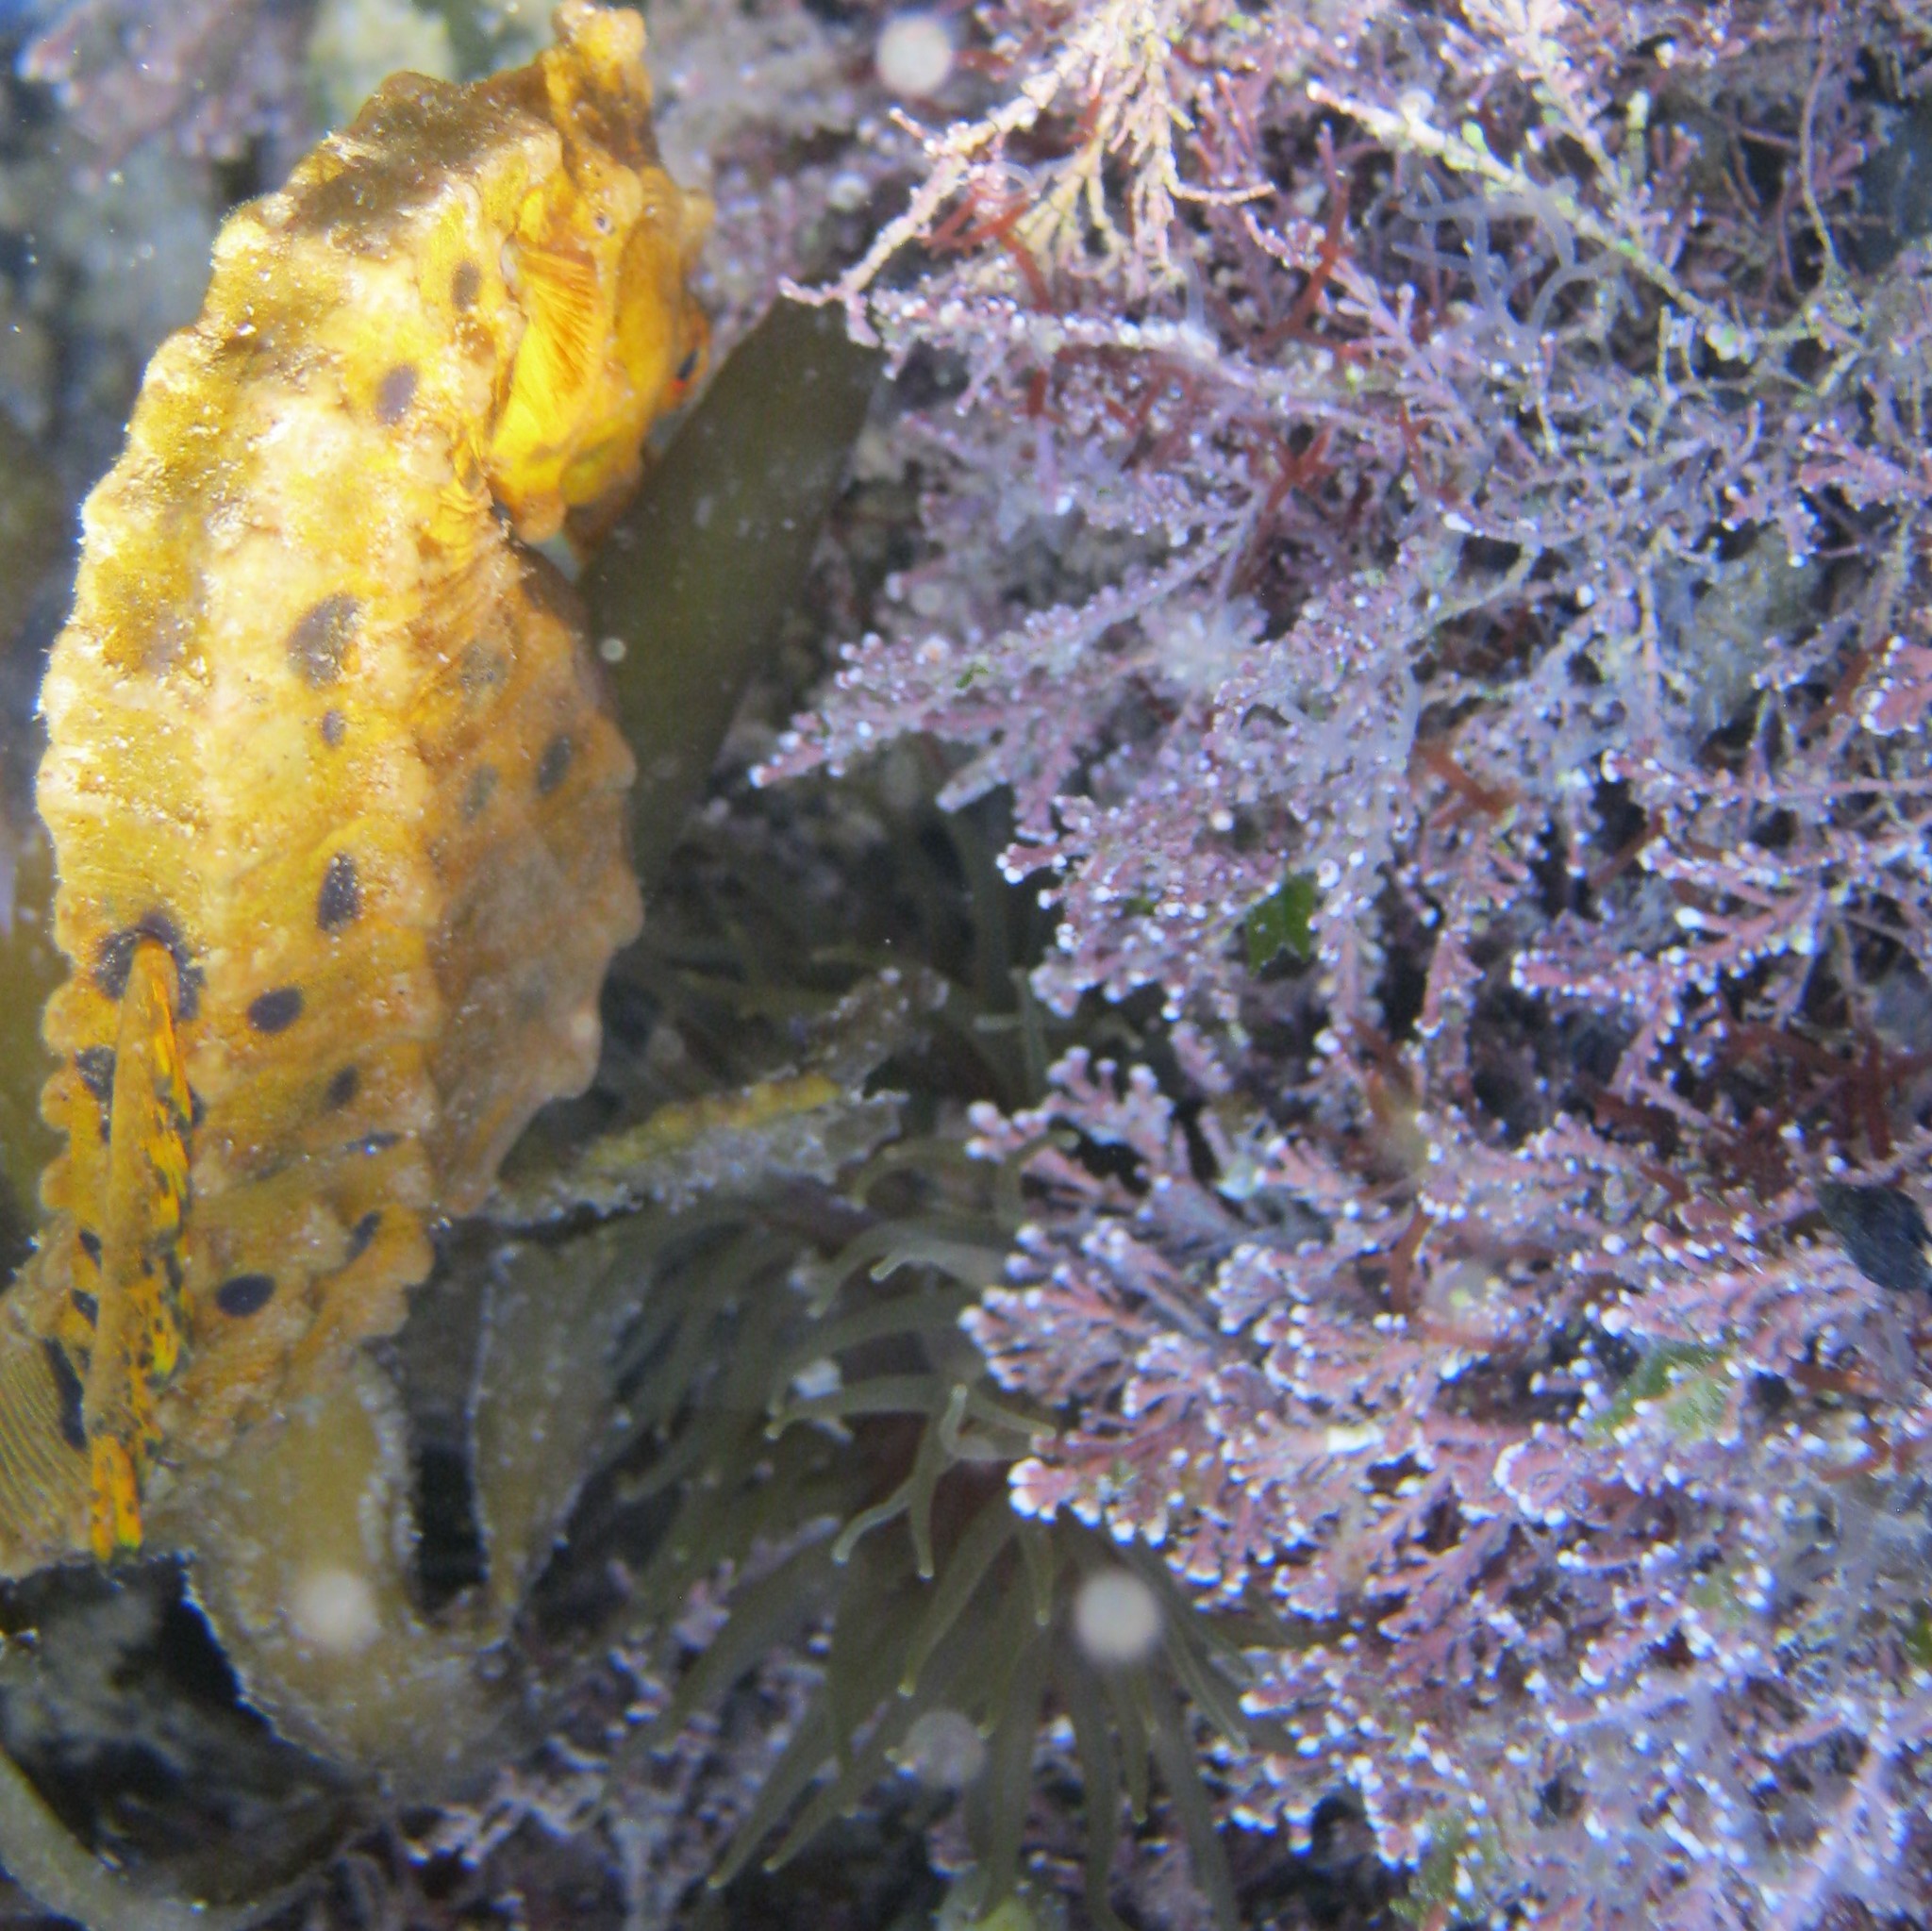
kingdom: Animalia
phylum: Chordata
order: Syngnathiformes
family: Syngnathidae
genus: Hippocampus
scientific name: Hippocampus abdominalis
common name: Big-belly seahorse
